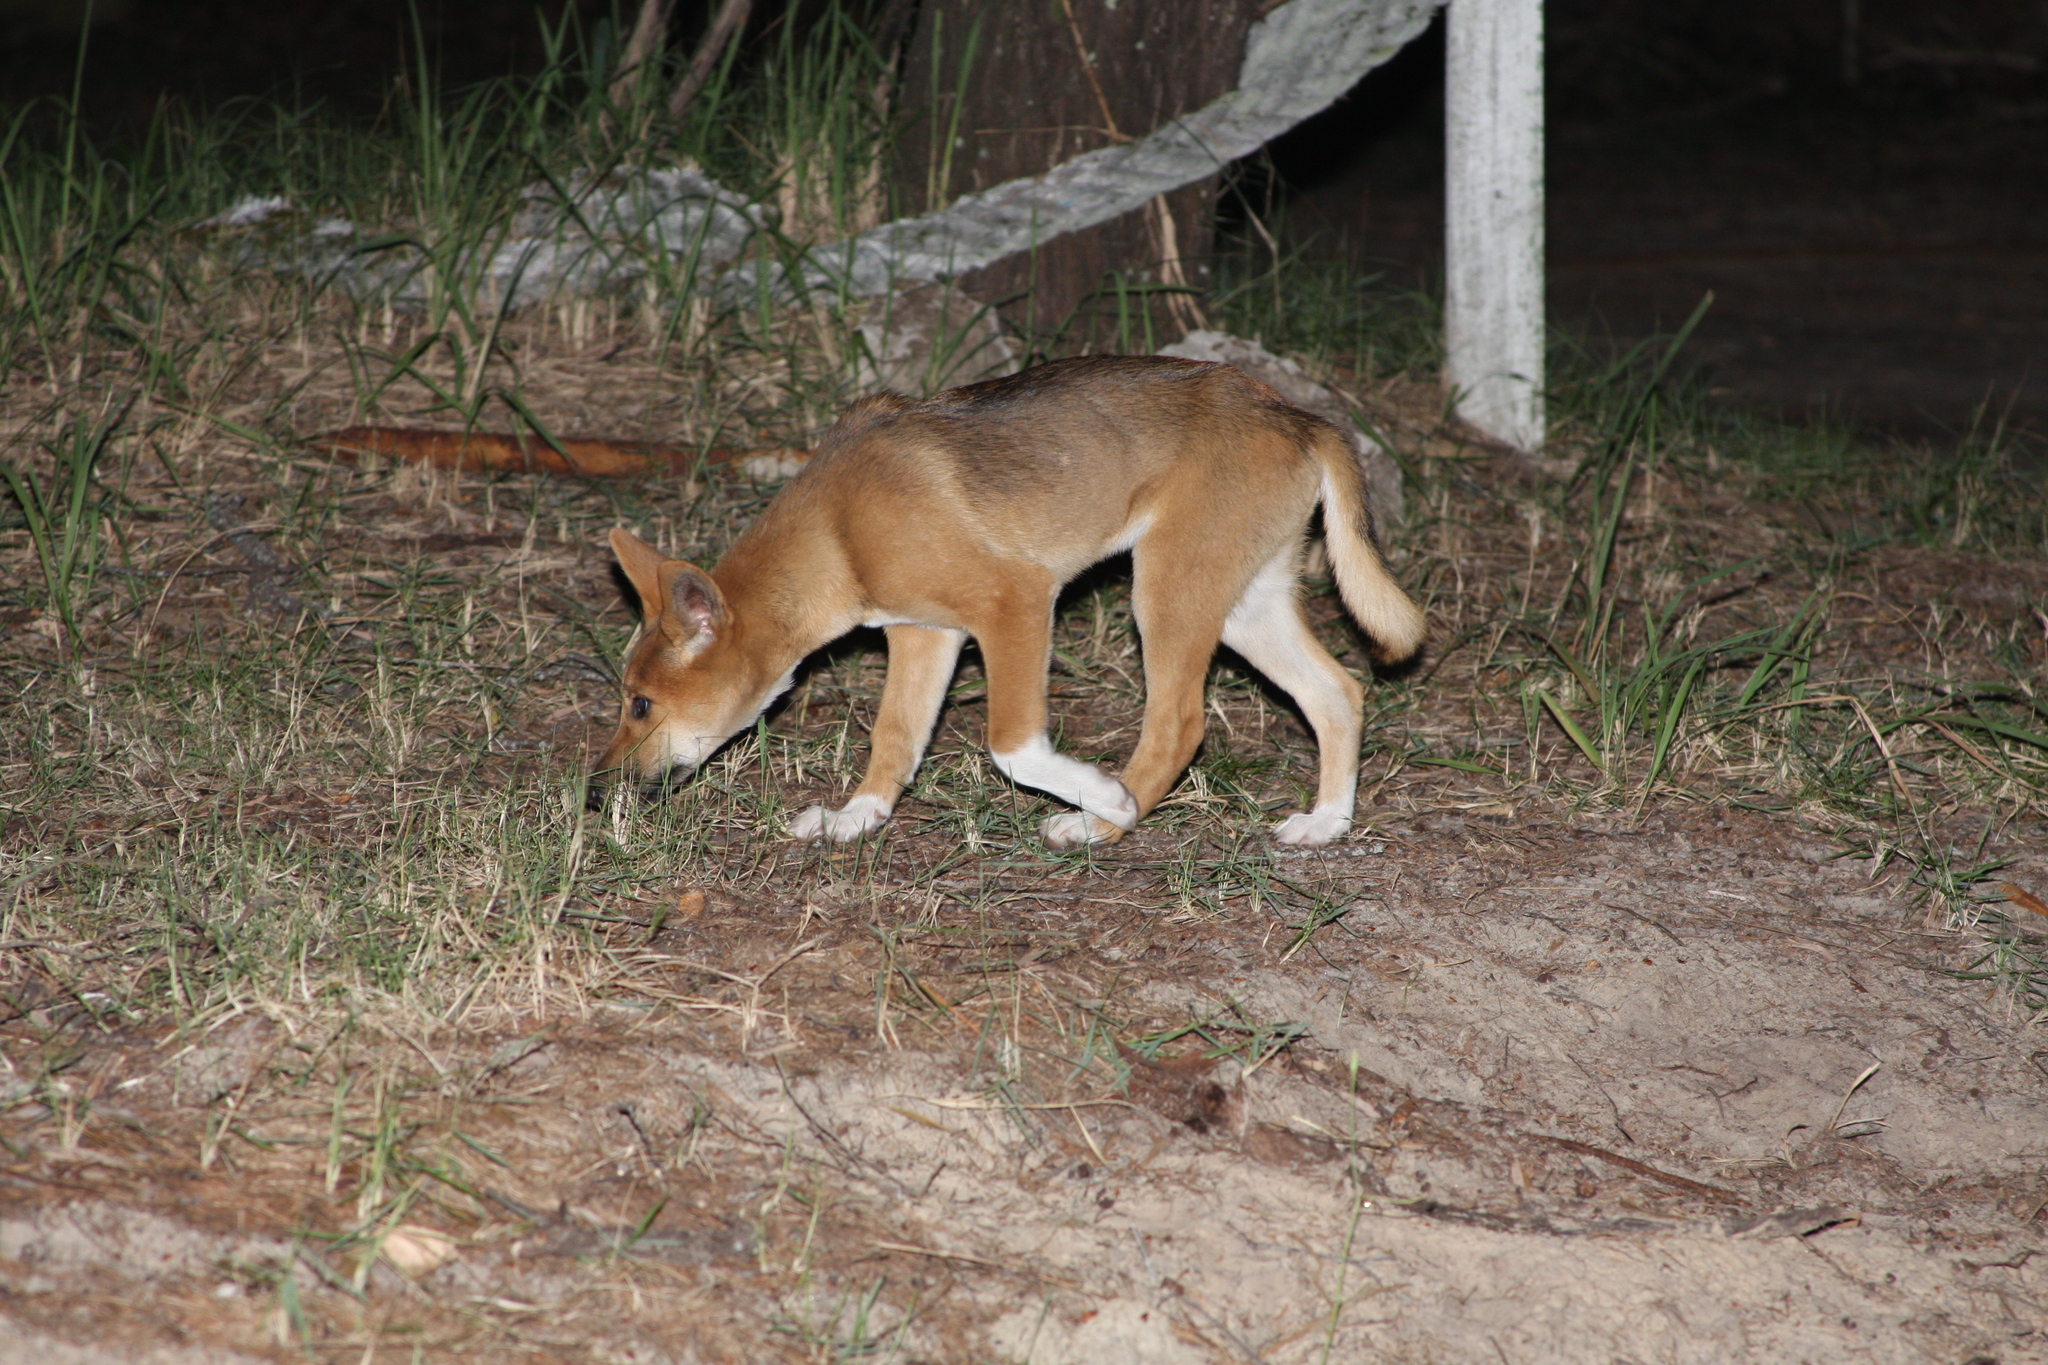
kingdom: Animalia
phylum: Chordata
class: Mammalia
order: Carnivora
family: Canidae
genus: Canis
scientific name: Canis lupus
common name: Gray wolf
